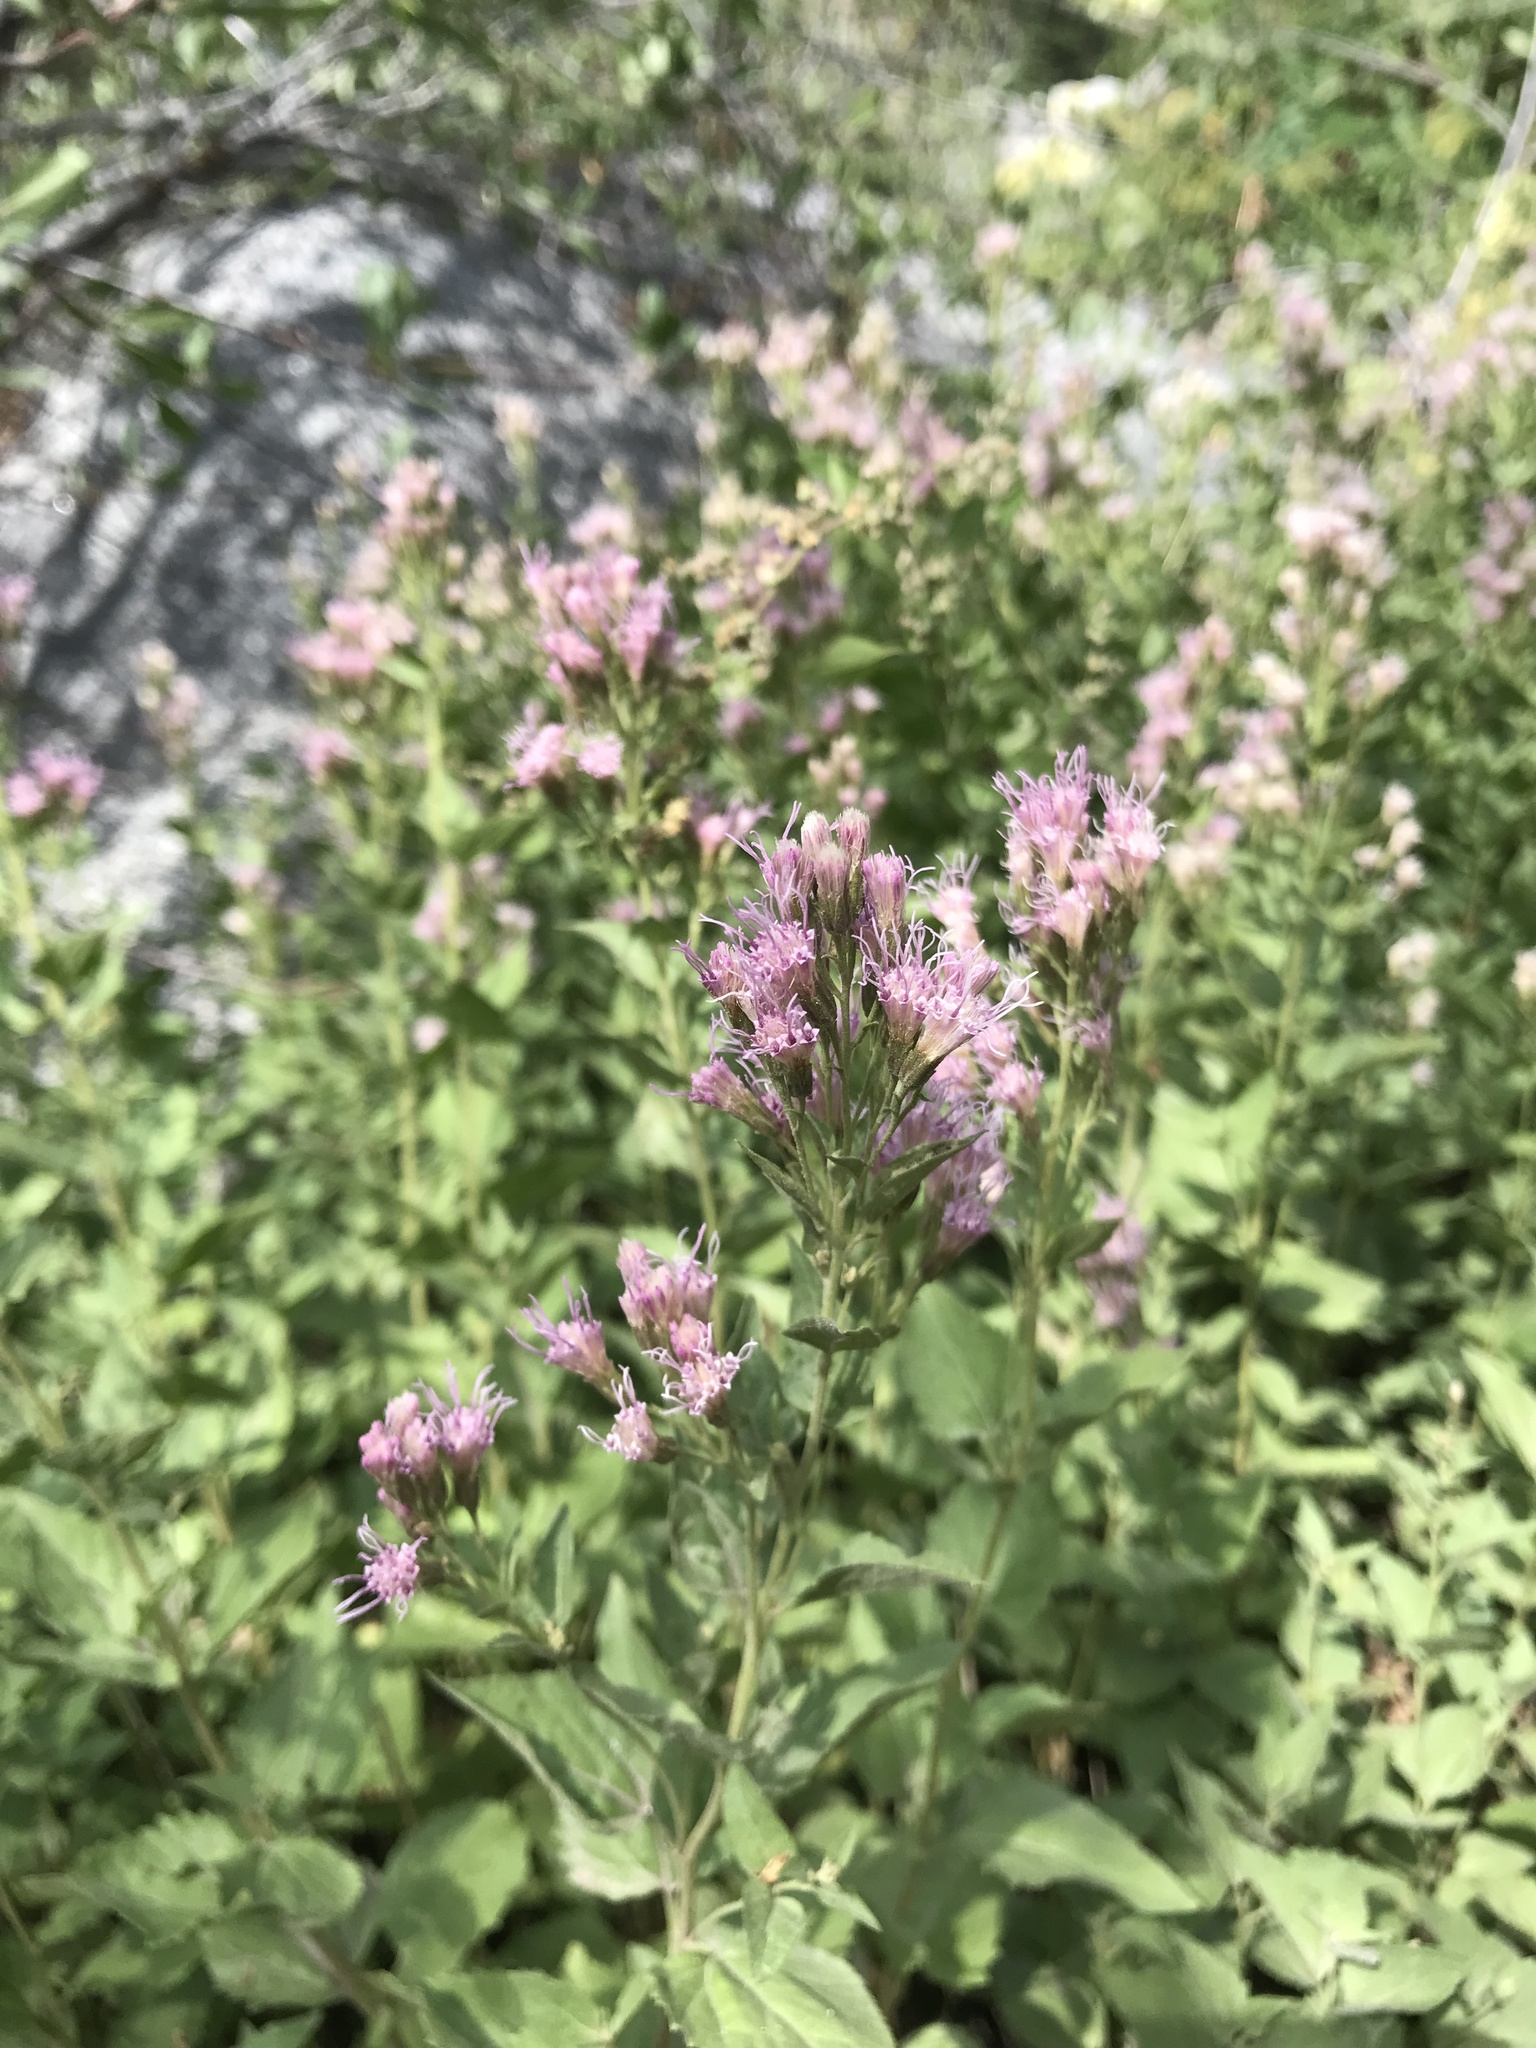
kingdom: Plantae
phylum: Tracheophyta
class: Magnoliopsida
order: Asterales
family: Asteraceae
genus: Ageratina
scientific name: Ageratina occidentalis
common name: Western snakeroot
